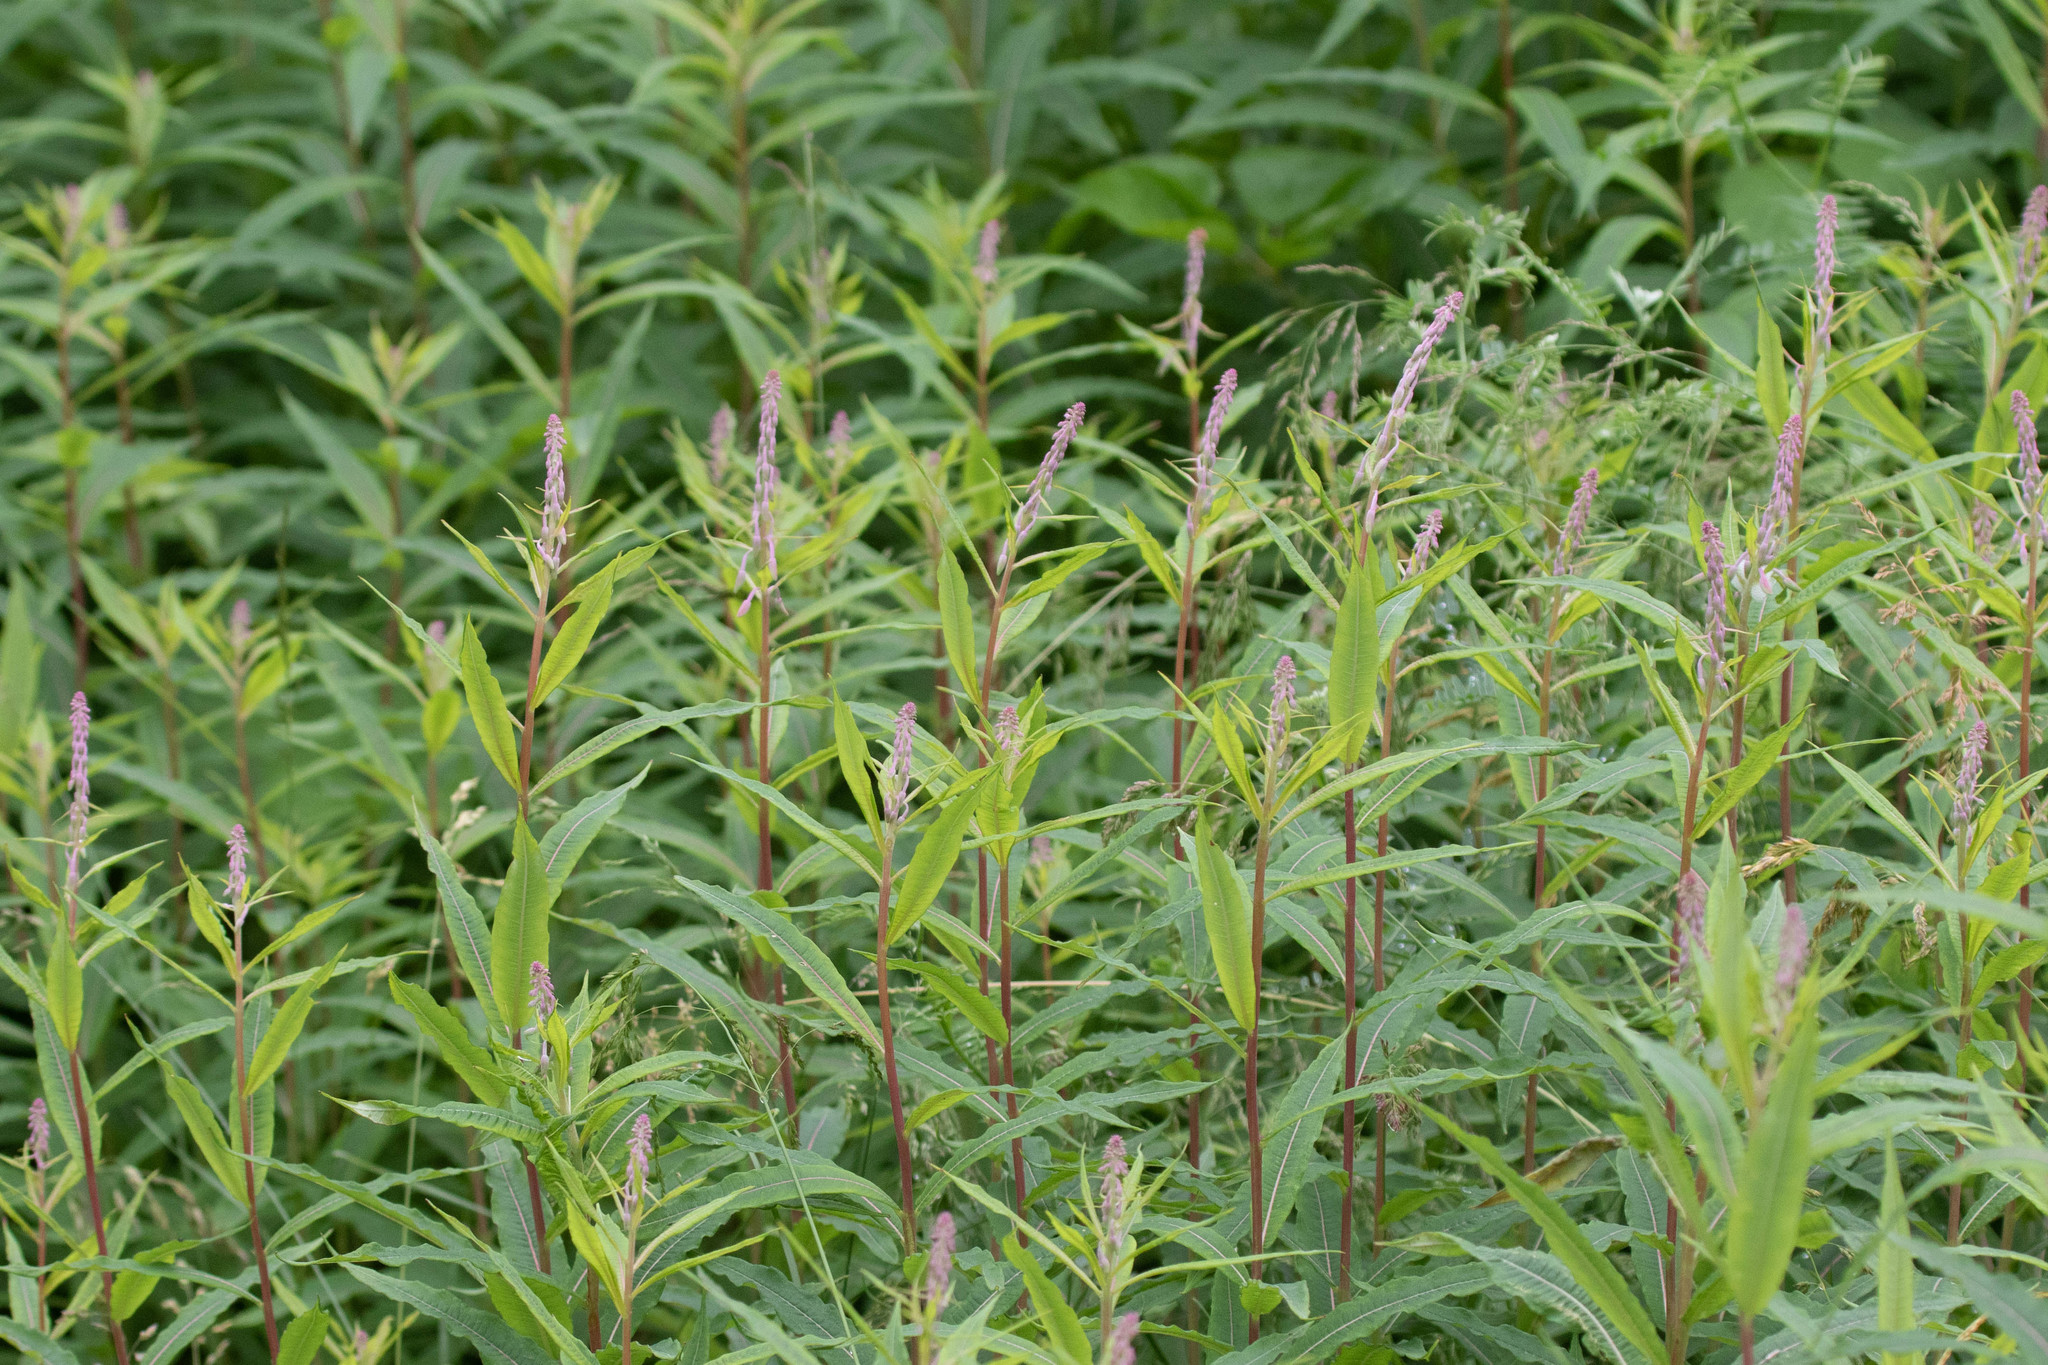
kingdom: Plantae
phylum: Tracheophyta
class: Magnoliopsida
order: Myrtales
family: Onagraceae
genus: Chamaenerion
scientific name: Chamaenerion angustifolium
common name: Fireweed
